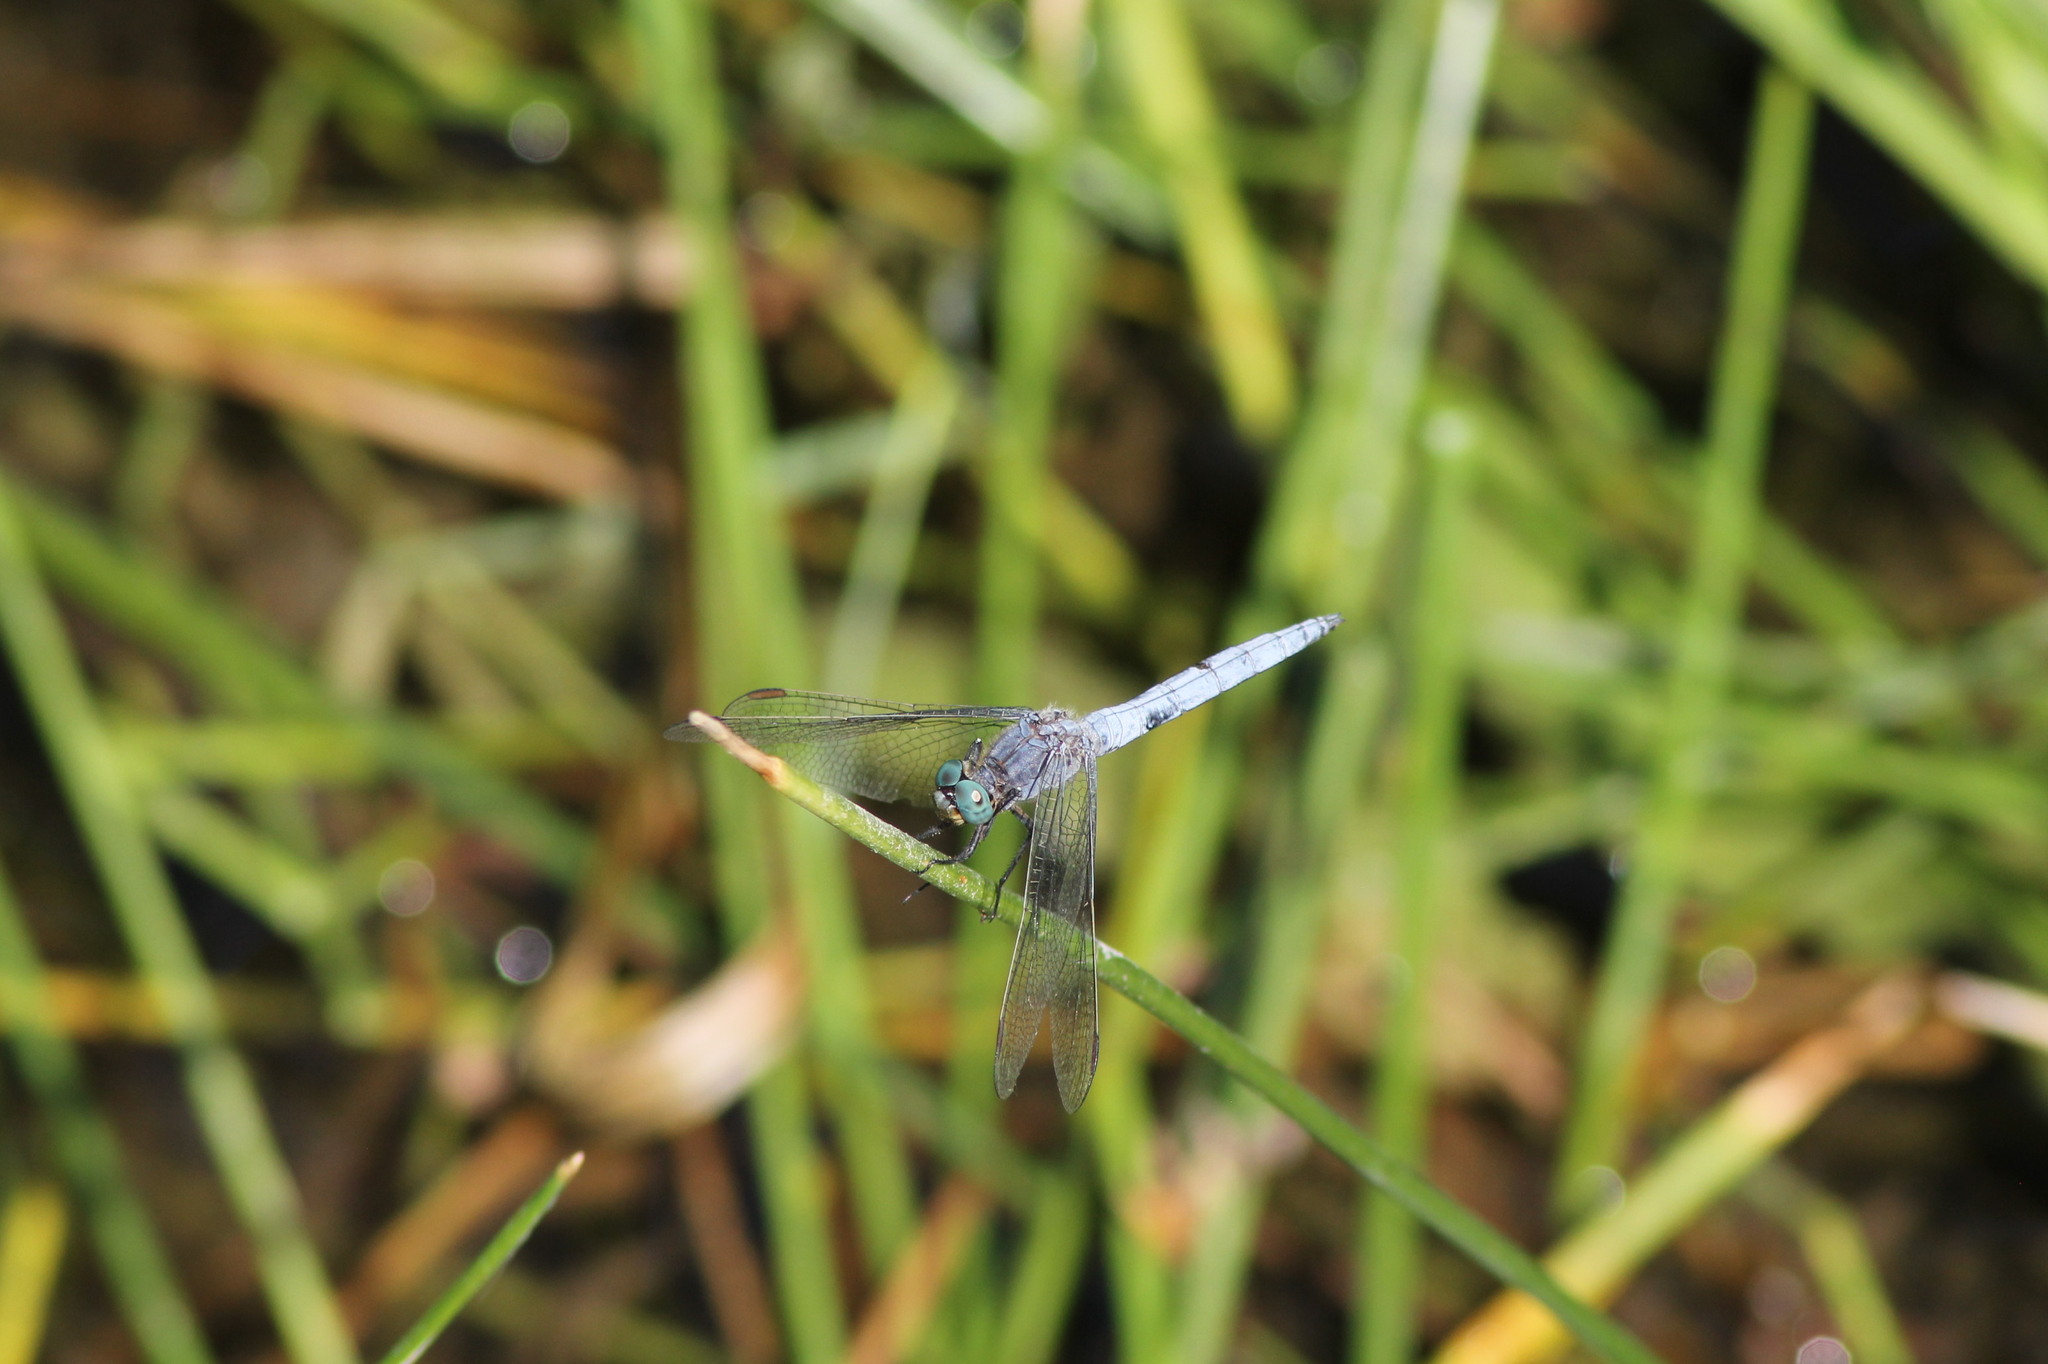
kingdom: Animalia
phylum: Arthropoda
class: Insecta
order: Odonata
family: Libellulidae
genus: Orthetrum
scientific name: Orthetrum coerulescens
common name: Keeled skimmer
